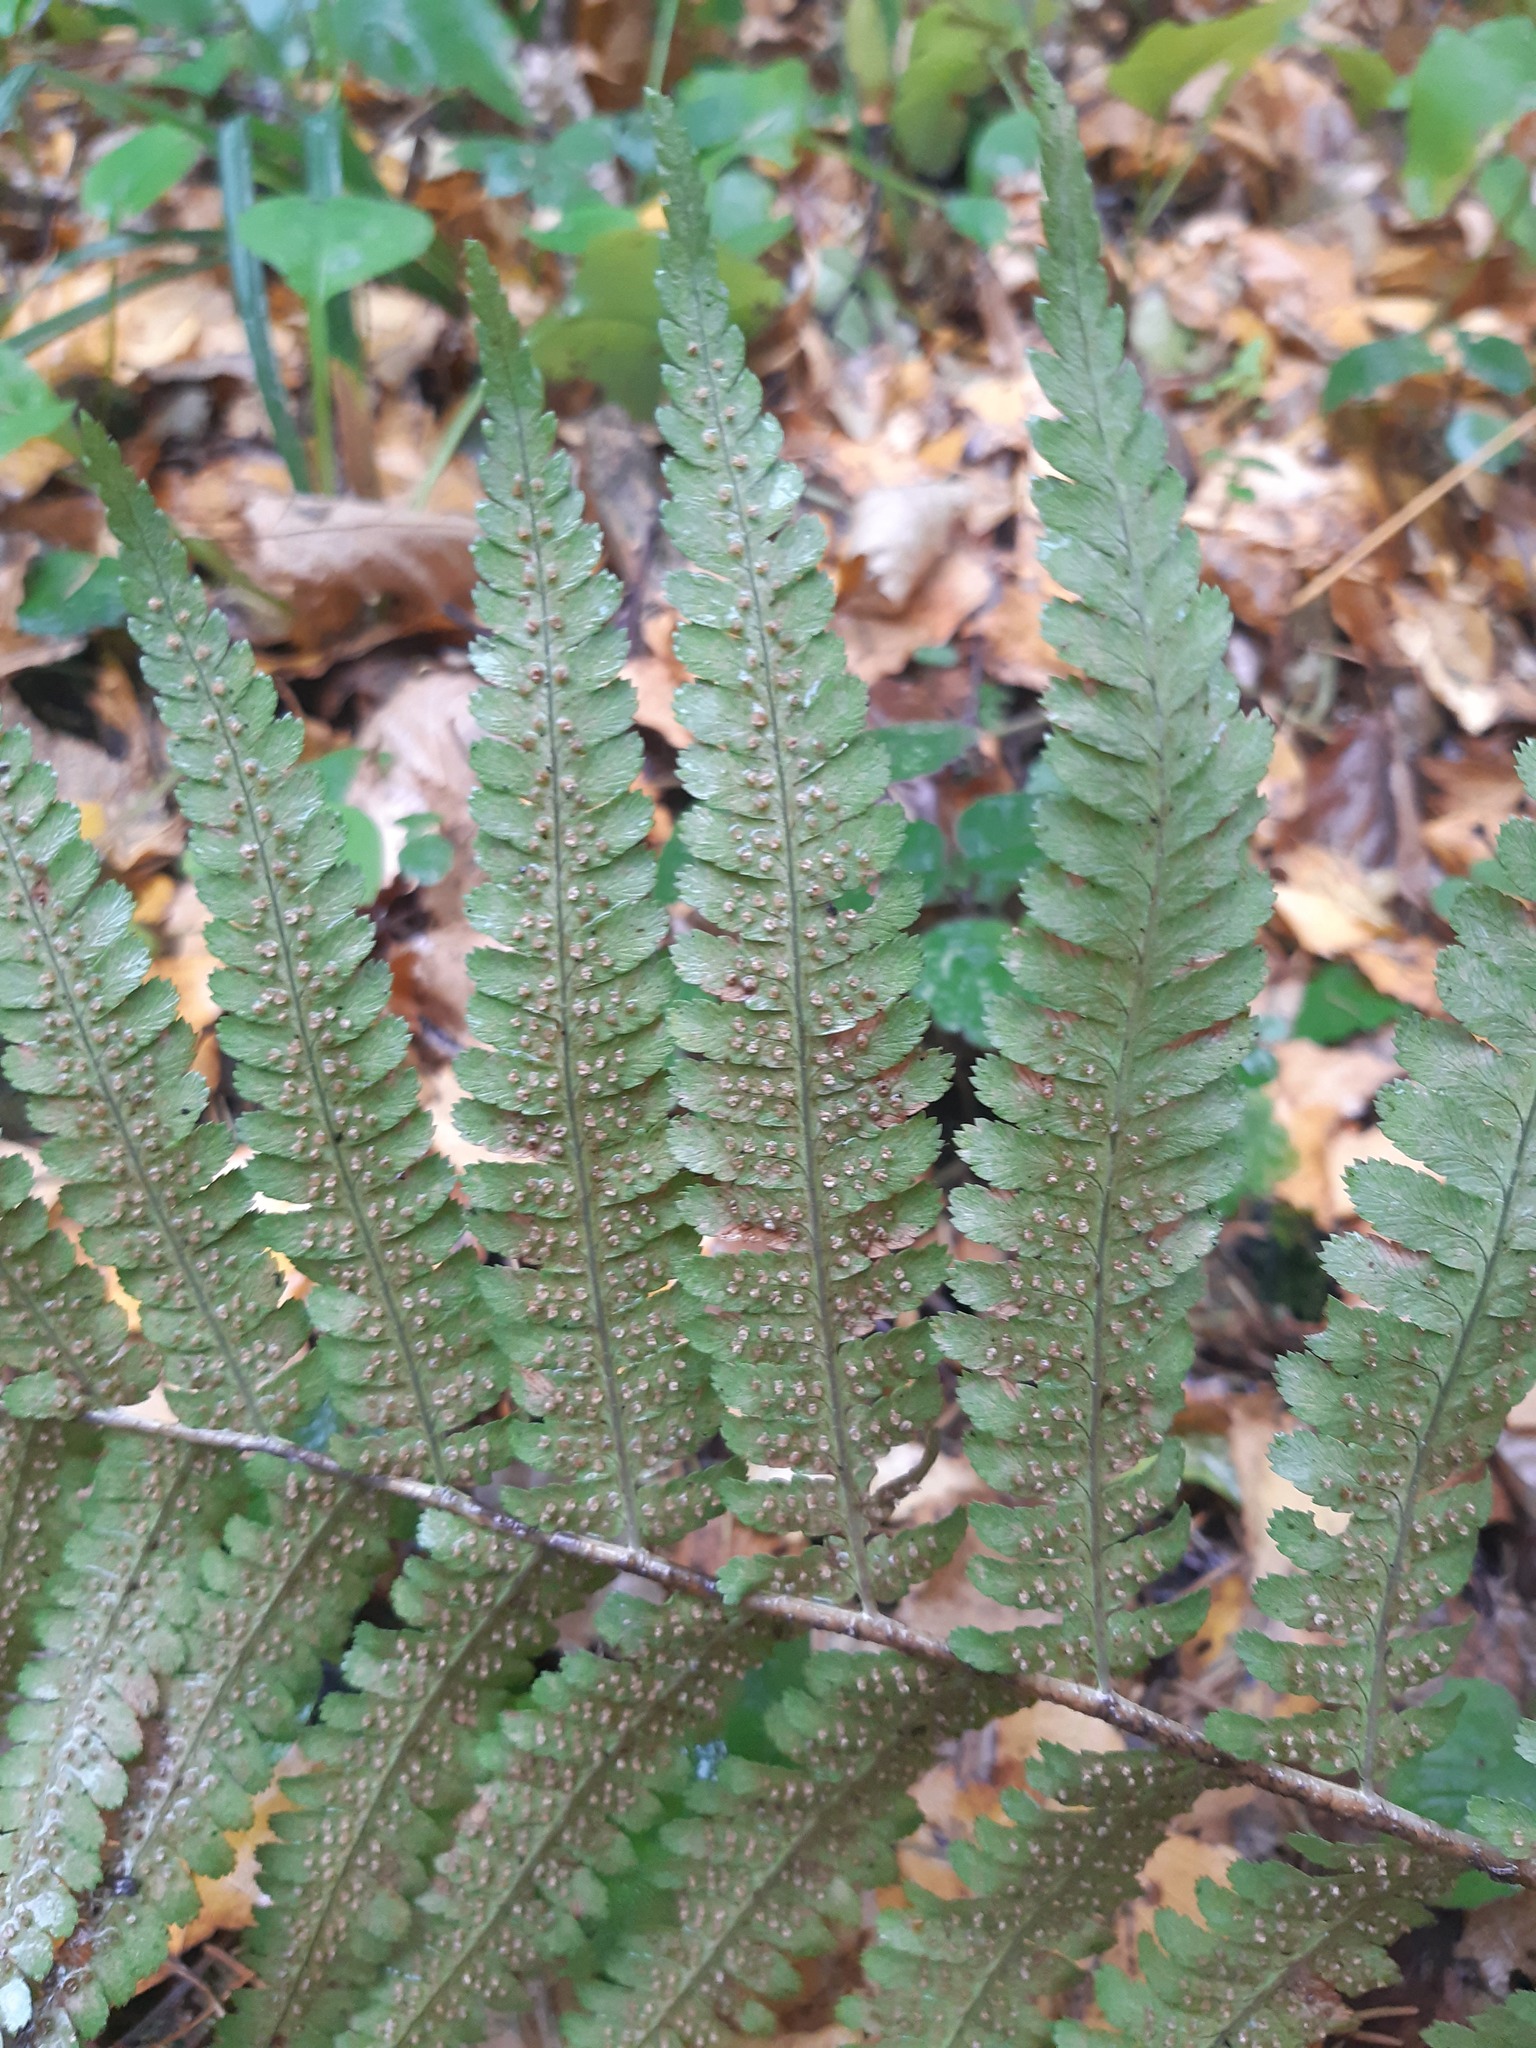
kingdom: Plantae
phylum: Tracheophyta
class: Polypodiopsida
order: Polypodiales
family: Dryopteridaceae
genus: Dryopteris
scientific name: Dryopteris filix-mas
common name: Male fern
